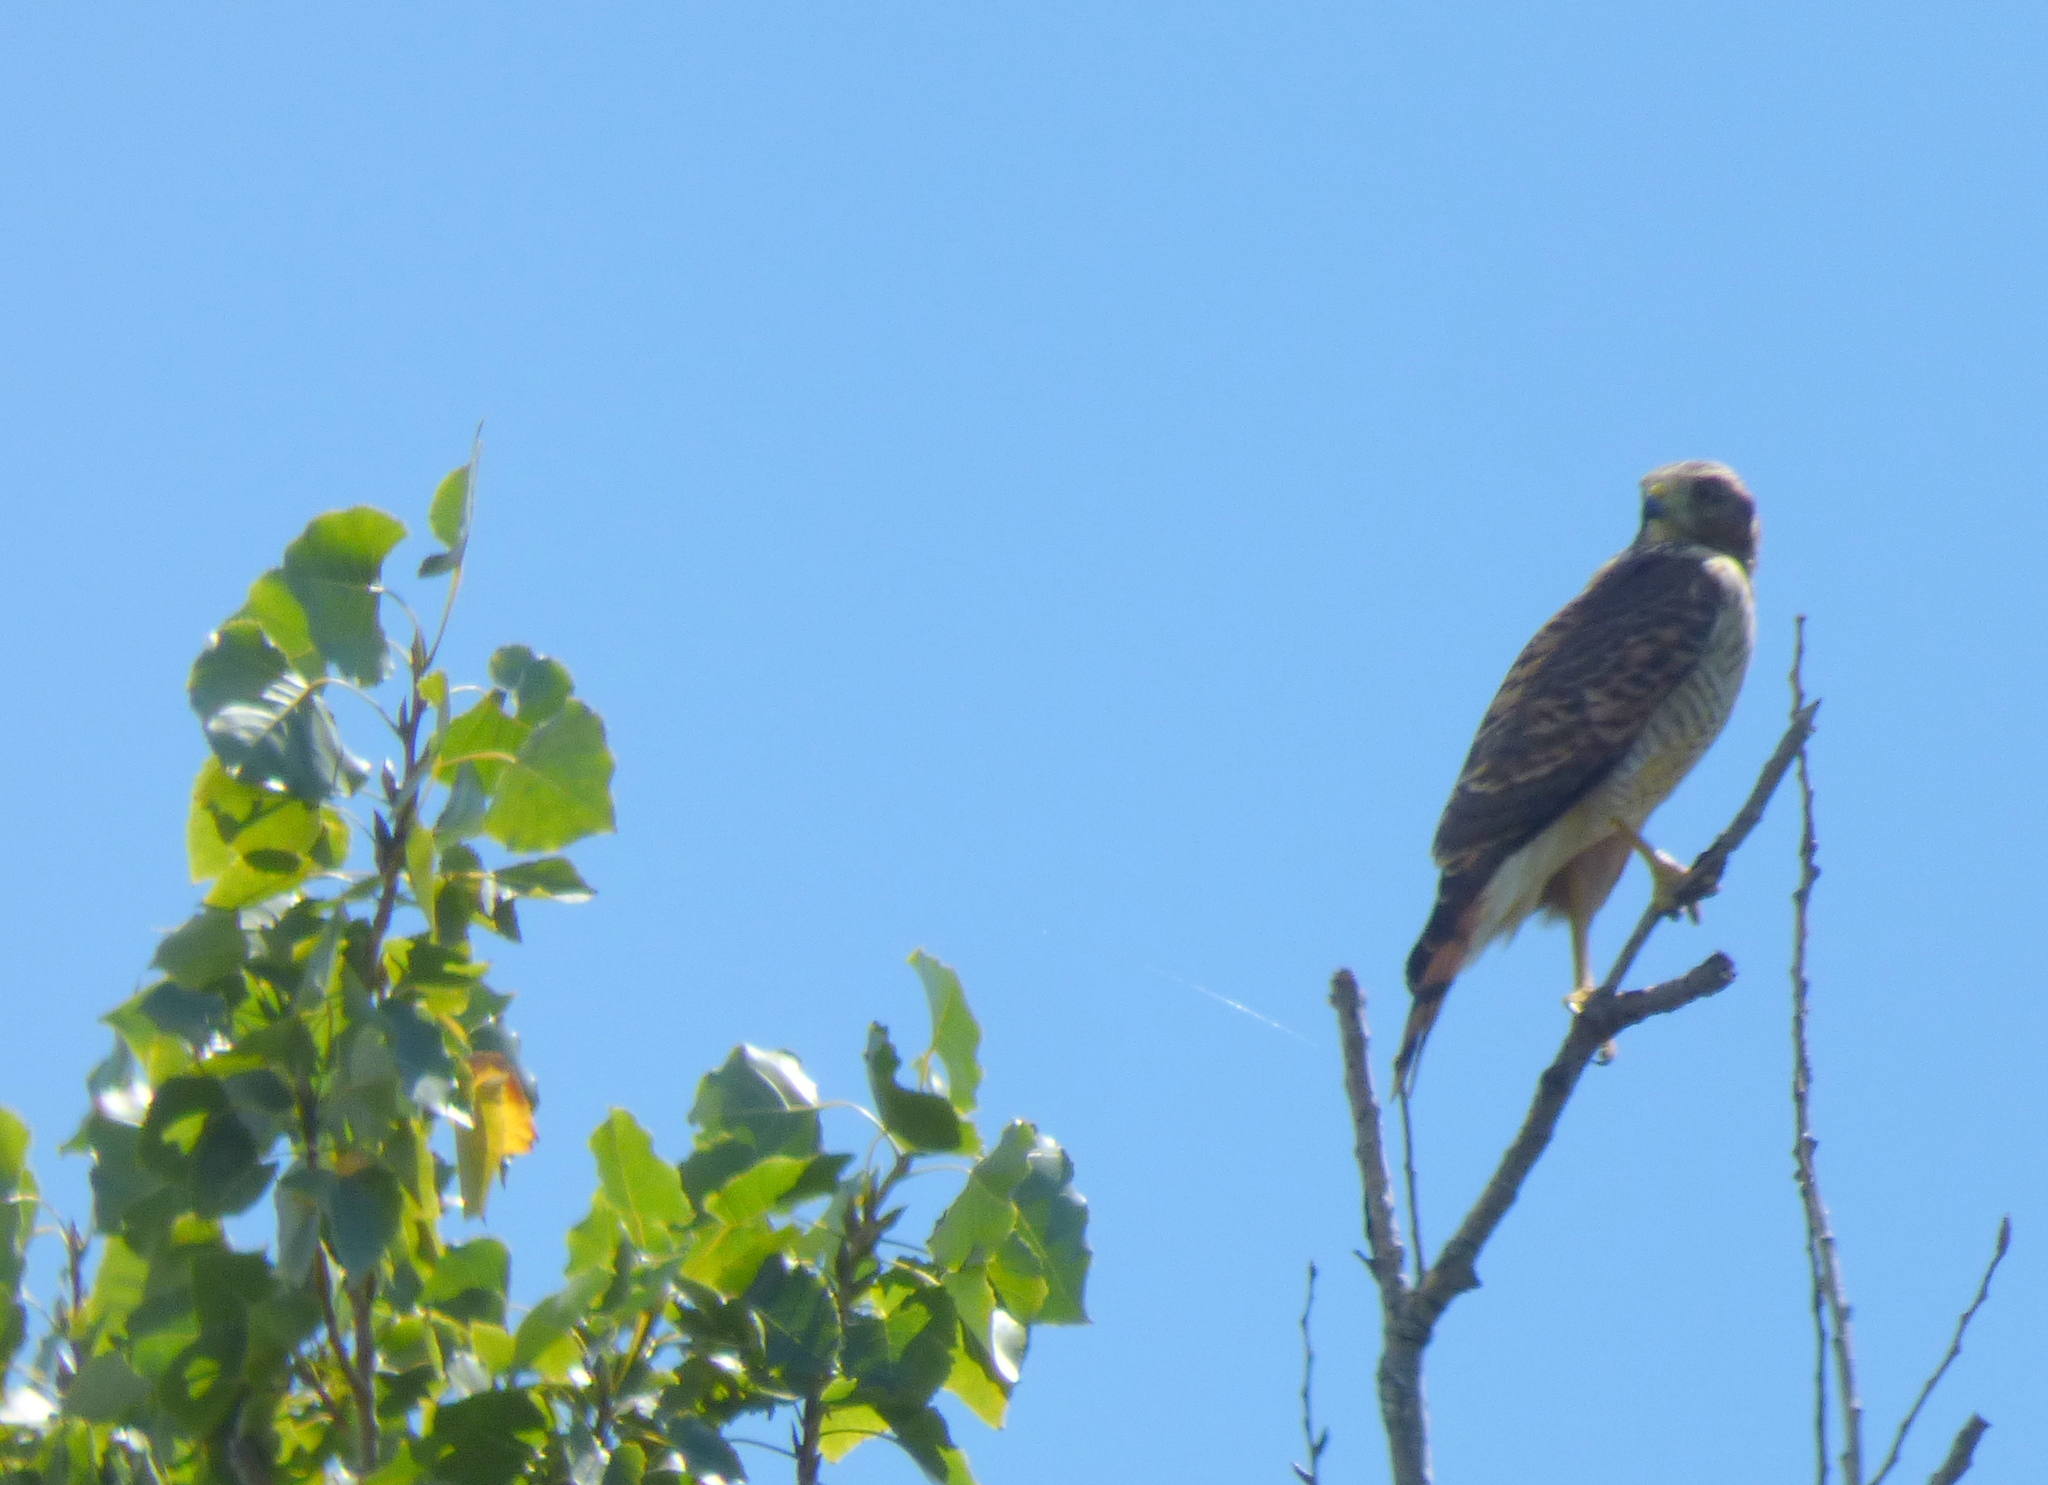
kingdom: Animalia
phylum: Chordata
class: Aves
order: Accipitriformes
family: Accipitridae
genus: Rupornis
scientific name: Rupornis magnirostris
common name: Roadside hawk
